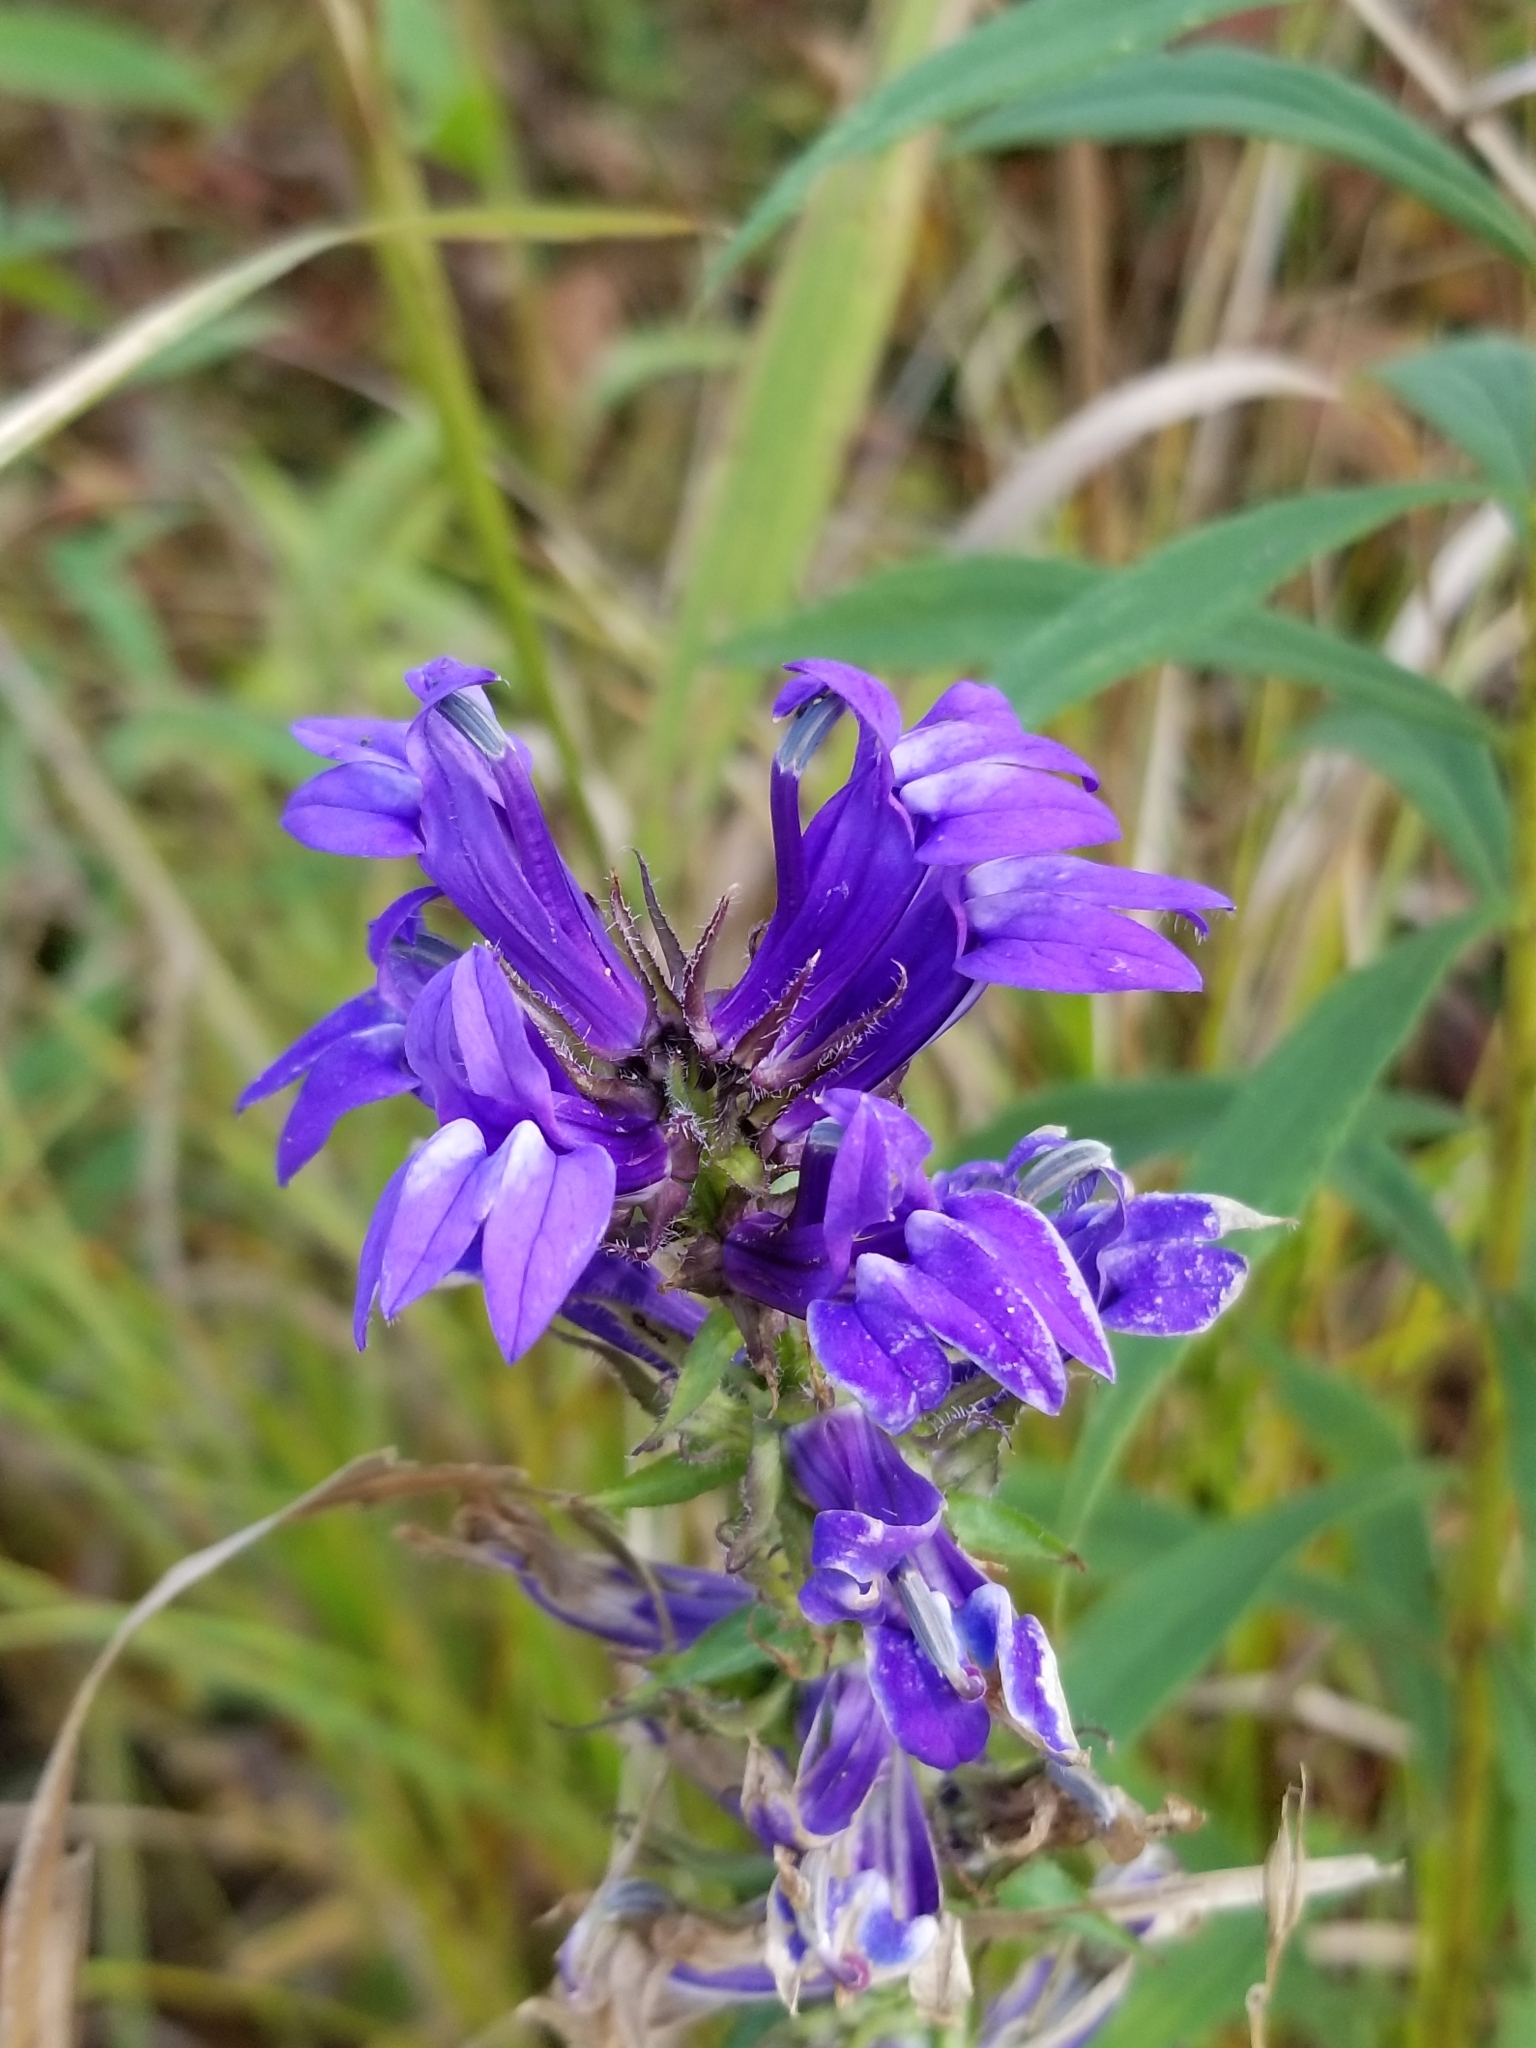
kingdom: Plantae
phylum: Tracheophyta
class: Magnoliopsida
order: Asterales
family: Campanulaceae
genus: Lobelia
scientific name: Lobelia siphilitica
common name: Great lobelia
